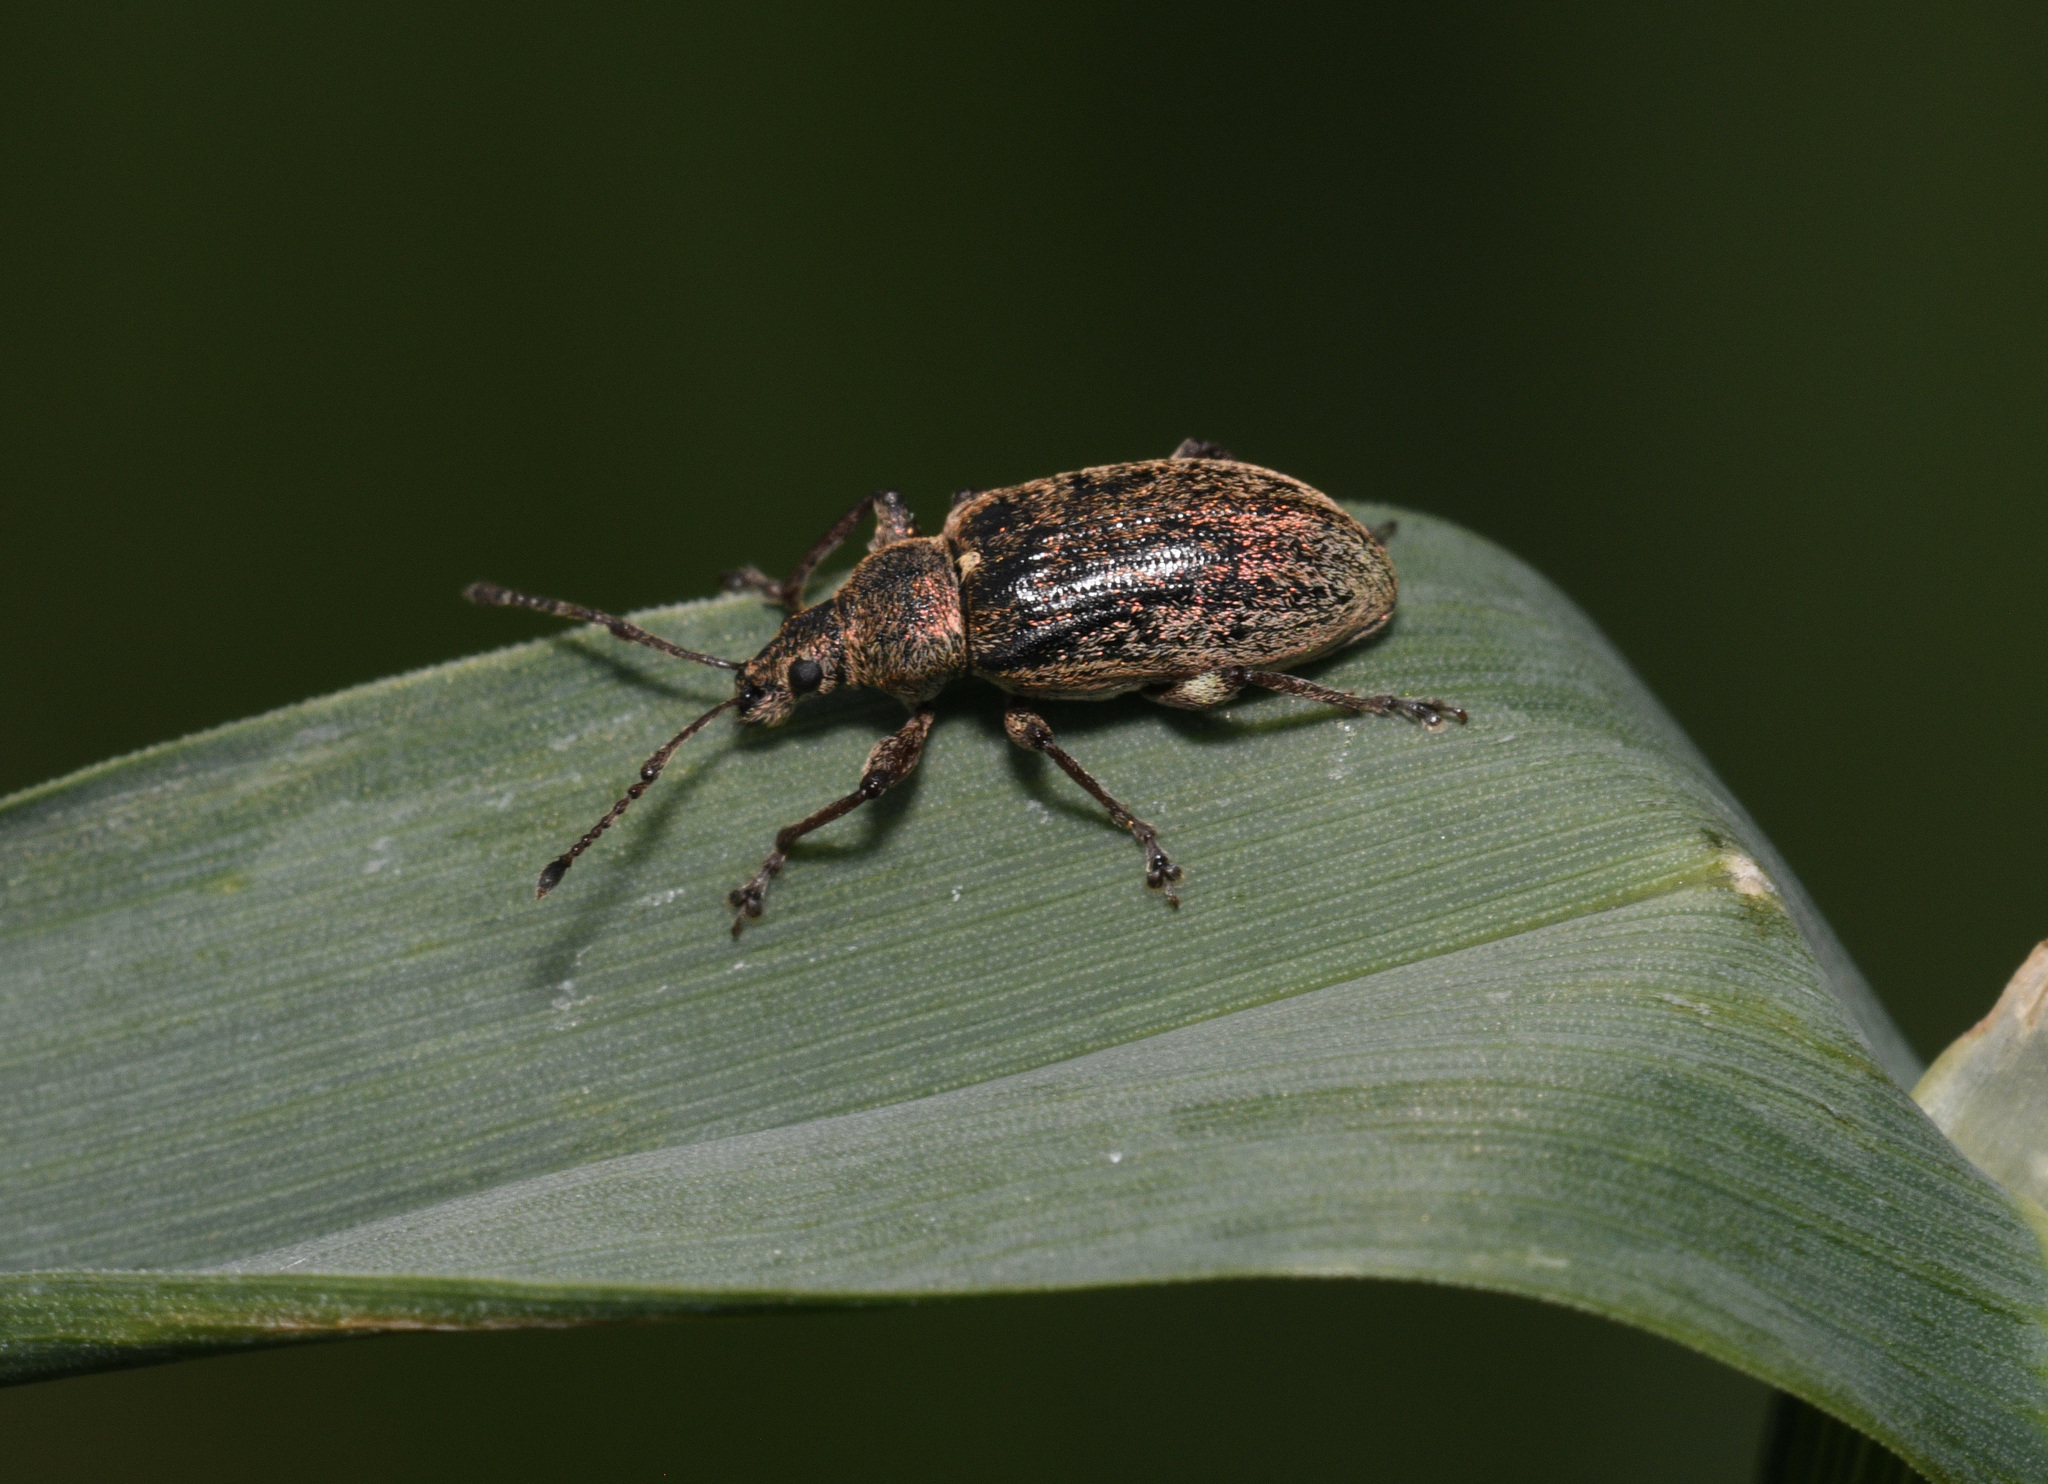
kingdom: Animalia
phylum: Arthropoda
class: Insecta
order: Coleoptera
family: Curculionidae
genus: Phyllobius
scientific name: Phyllobius pyri
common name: Common leaf weevil
